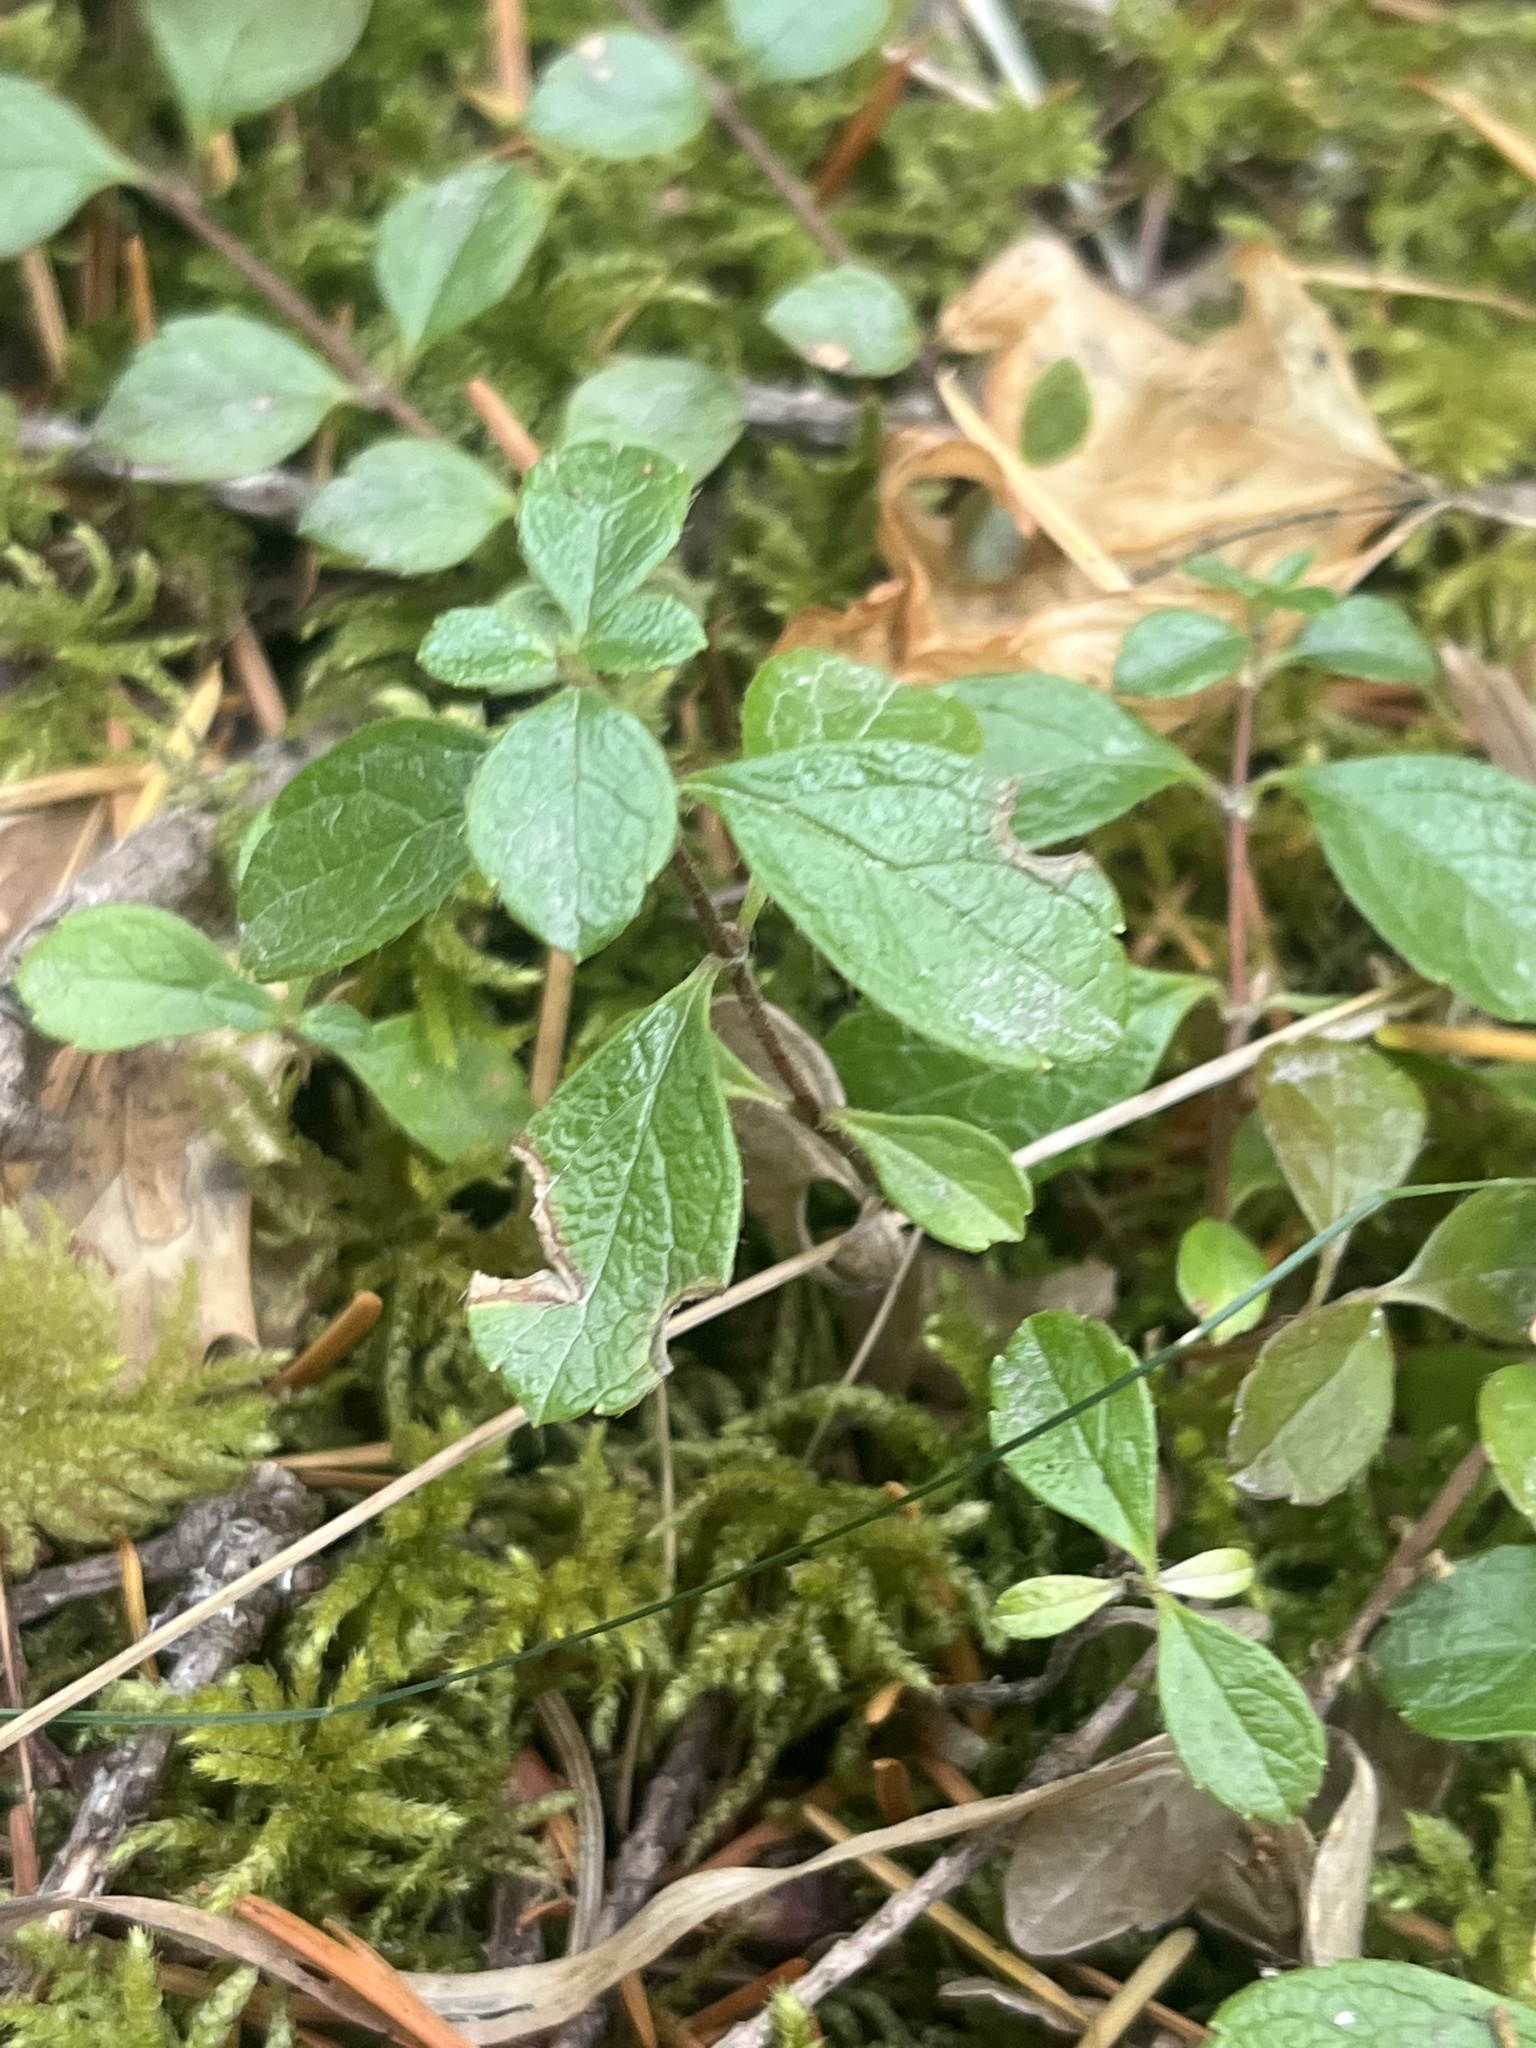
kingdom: Plantae
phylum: Tracheophyta
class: Magnoliopsida
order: Dipsacales
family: Caprifoliaceae
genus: Linnaea
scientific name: Linnaea borealis
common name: Twinflower
